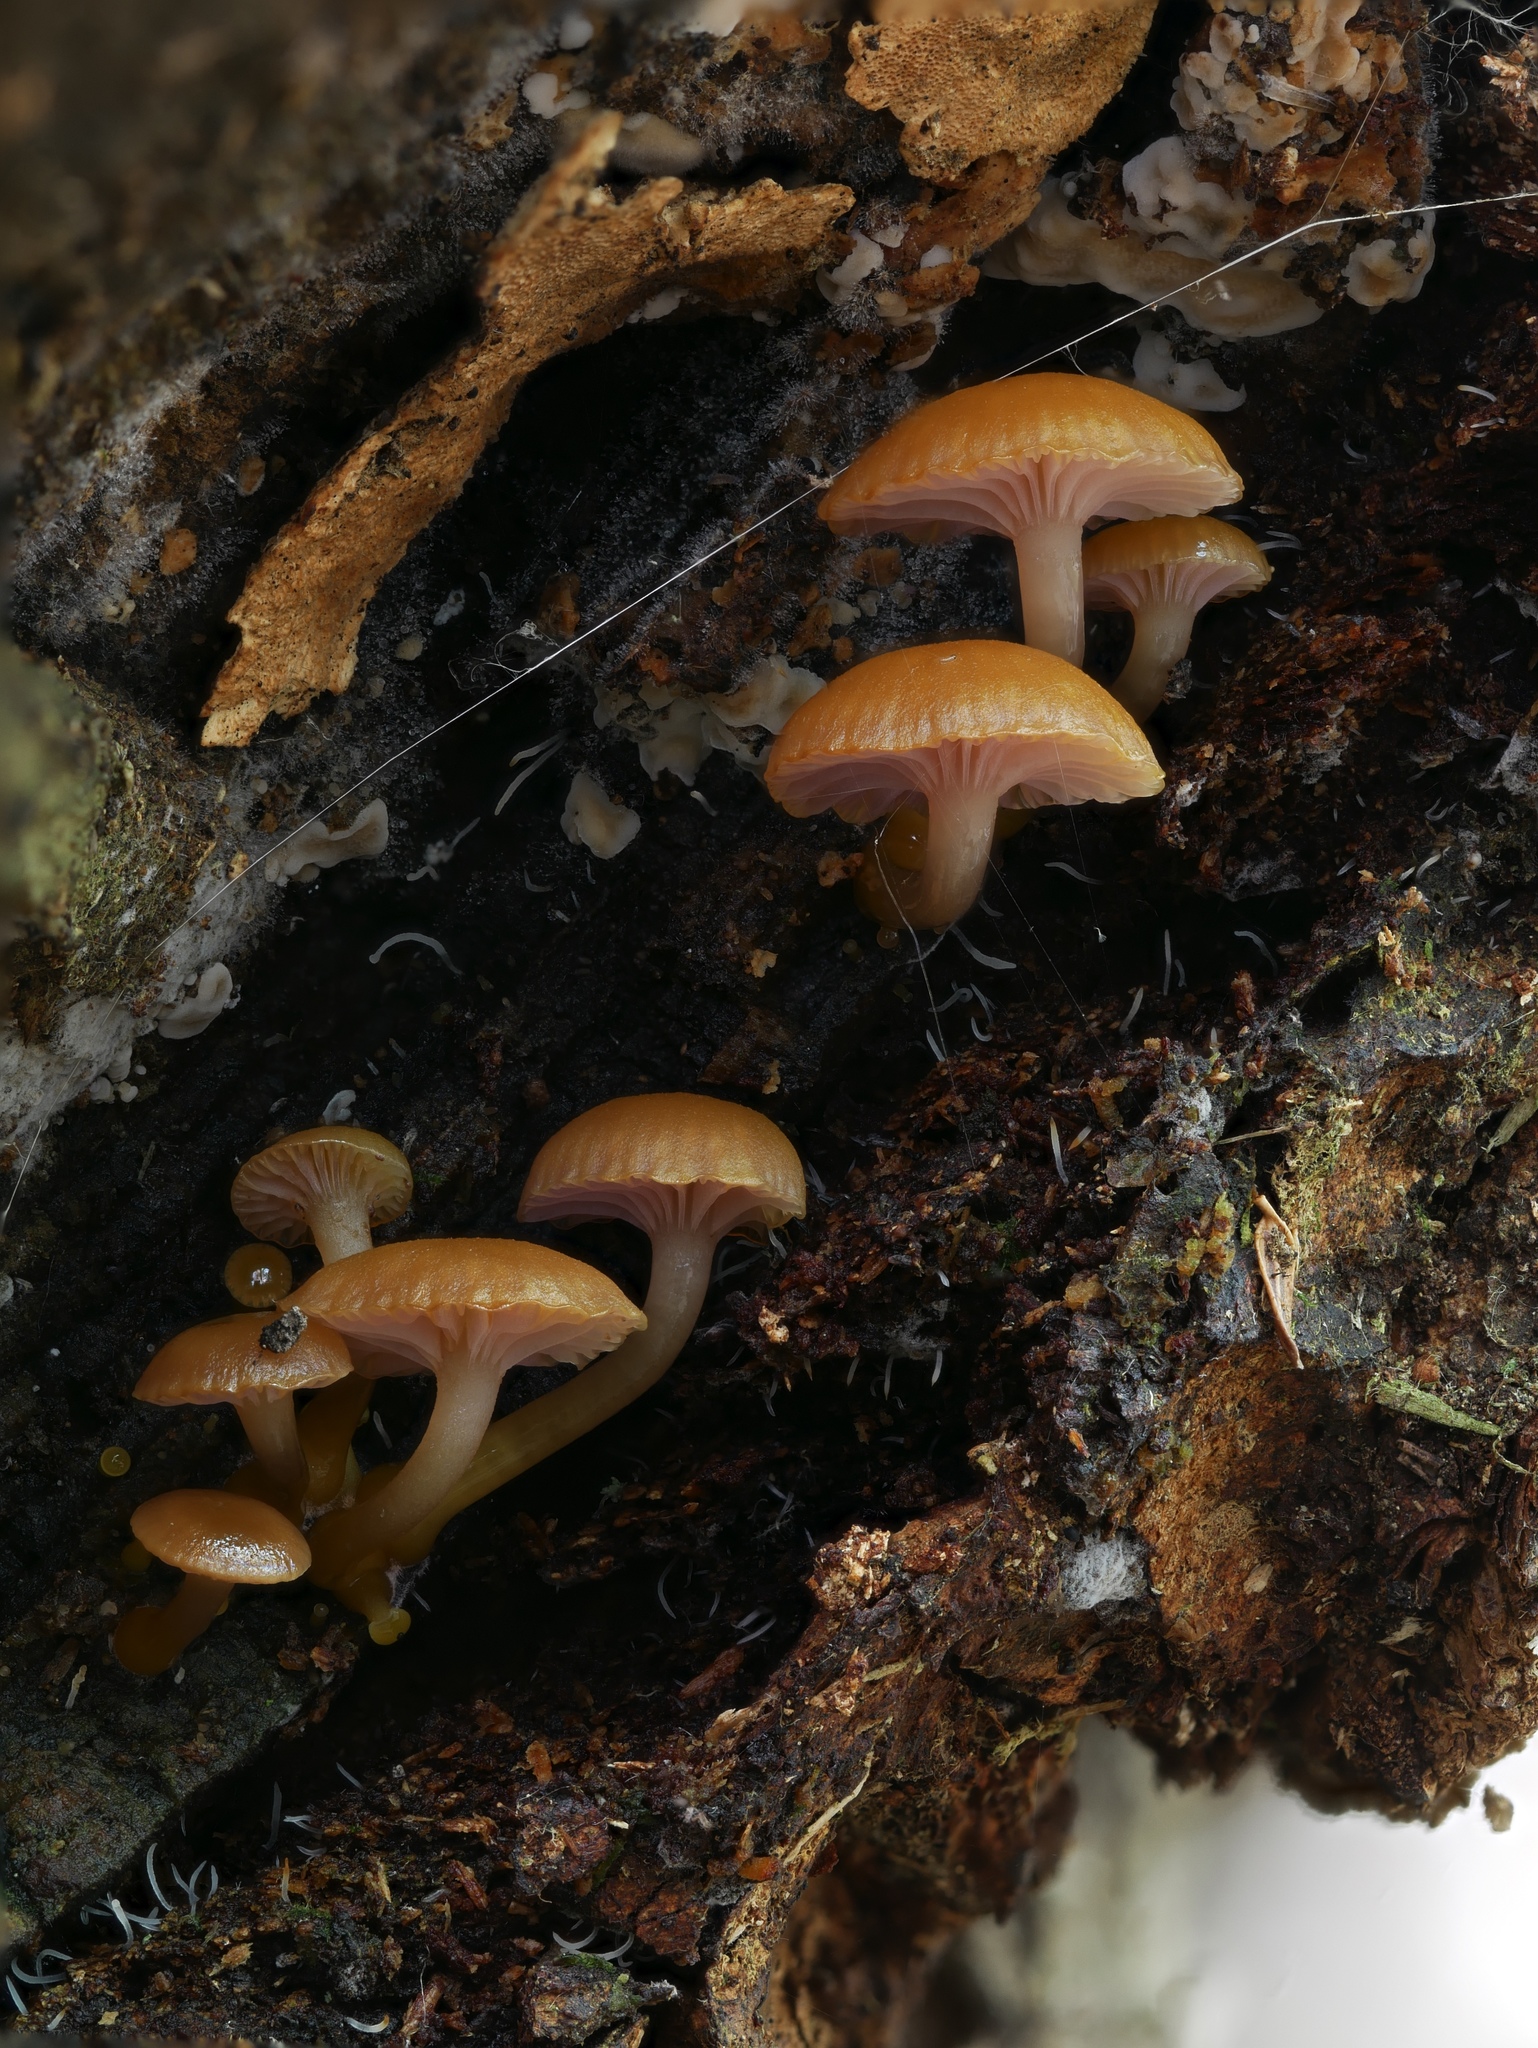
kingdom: Fungi
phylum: Basidiomycota
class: Agaricomycetes
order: Agaricales
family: Hygrophoraceae
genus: Chromosera
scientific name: Chromosera cyanophylla
